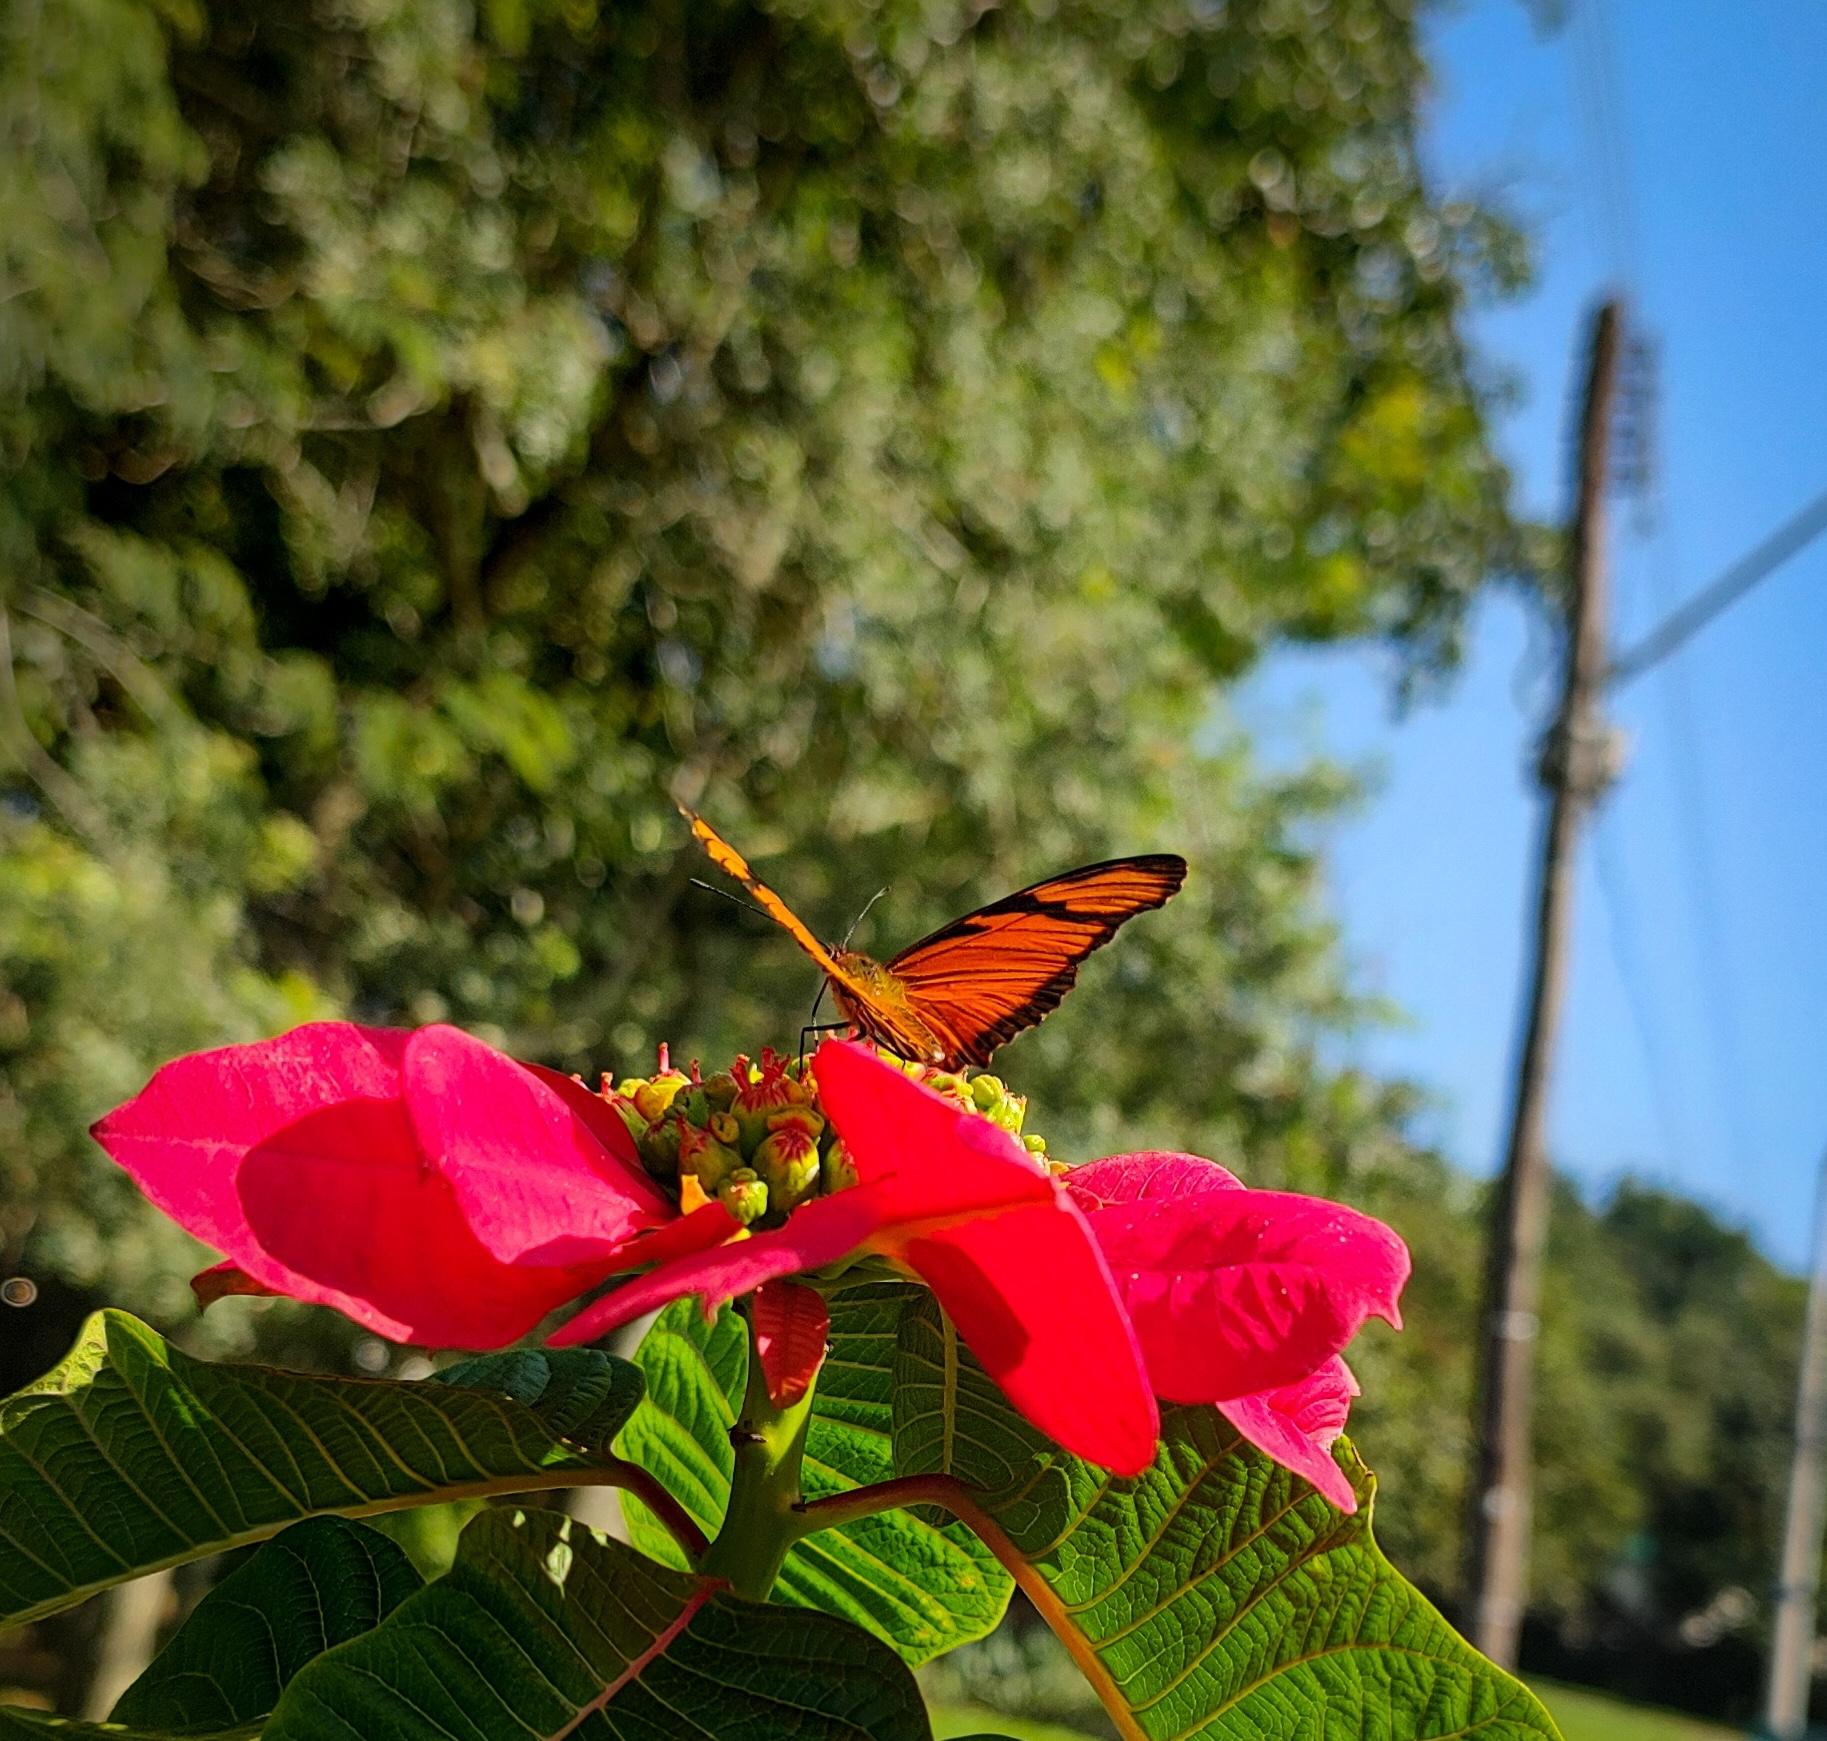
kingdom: Animalia
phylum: Arthropoda
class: Insecta
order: Lepidoptera
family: Nymphalidae
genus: Dione
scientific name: Dione juno
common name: Juno silverspot
